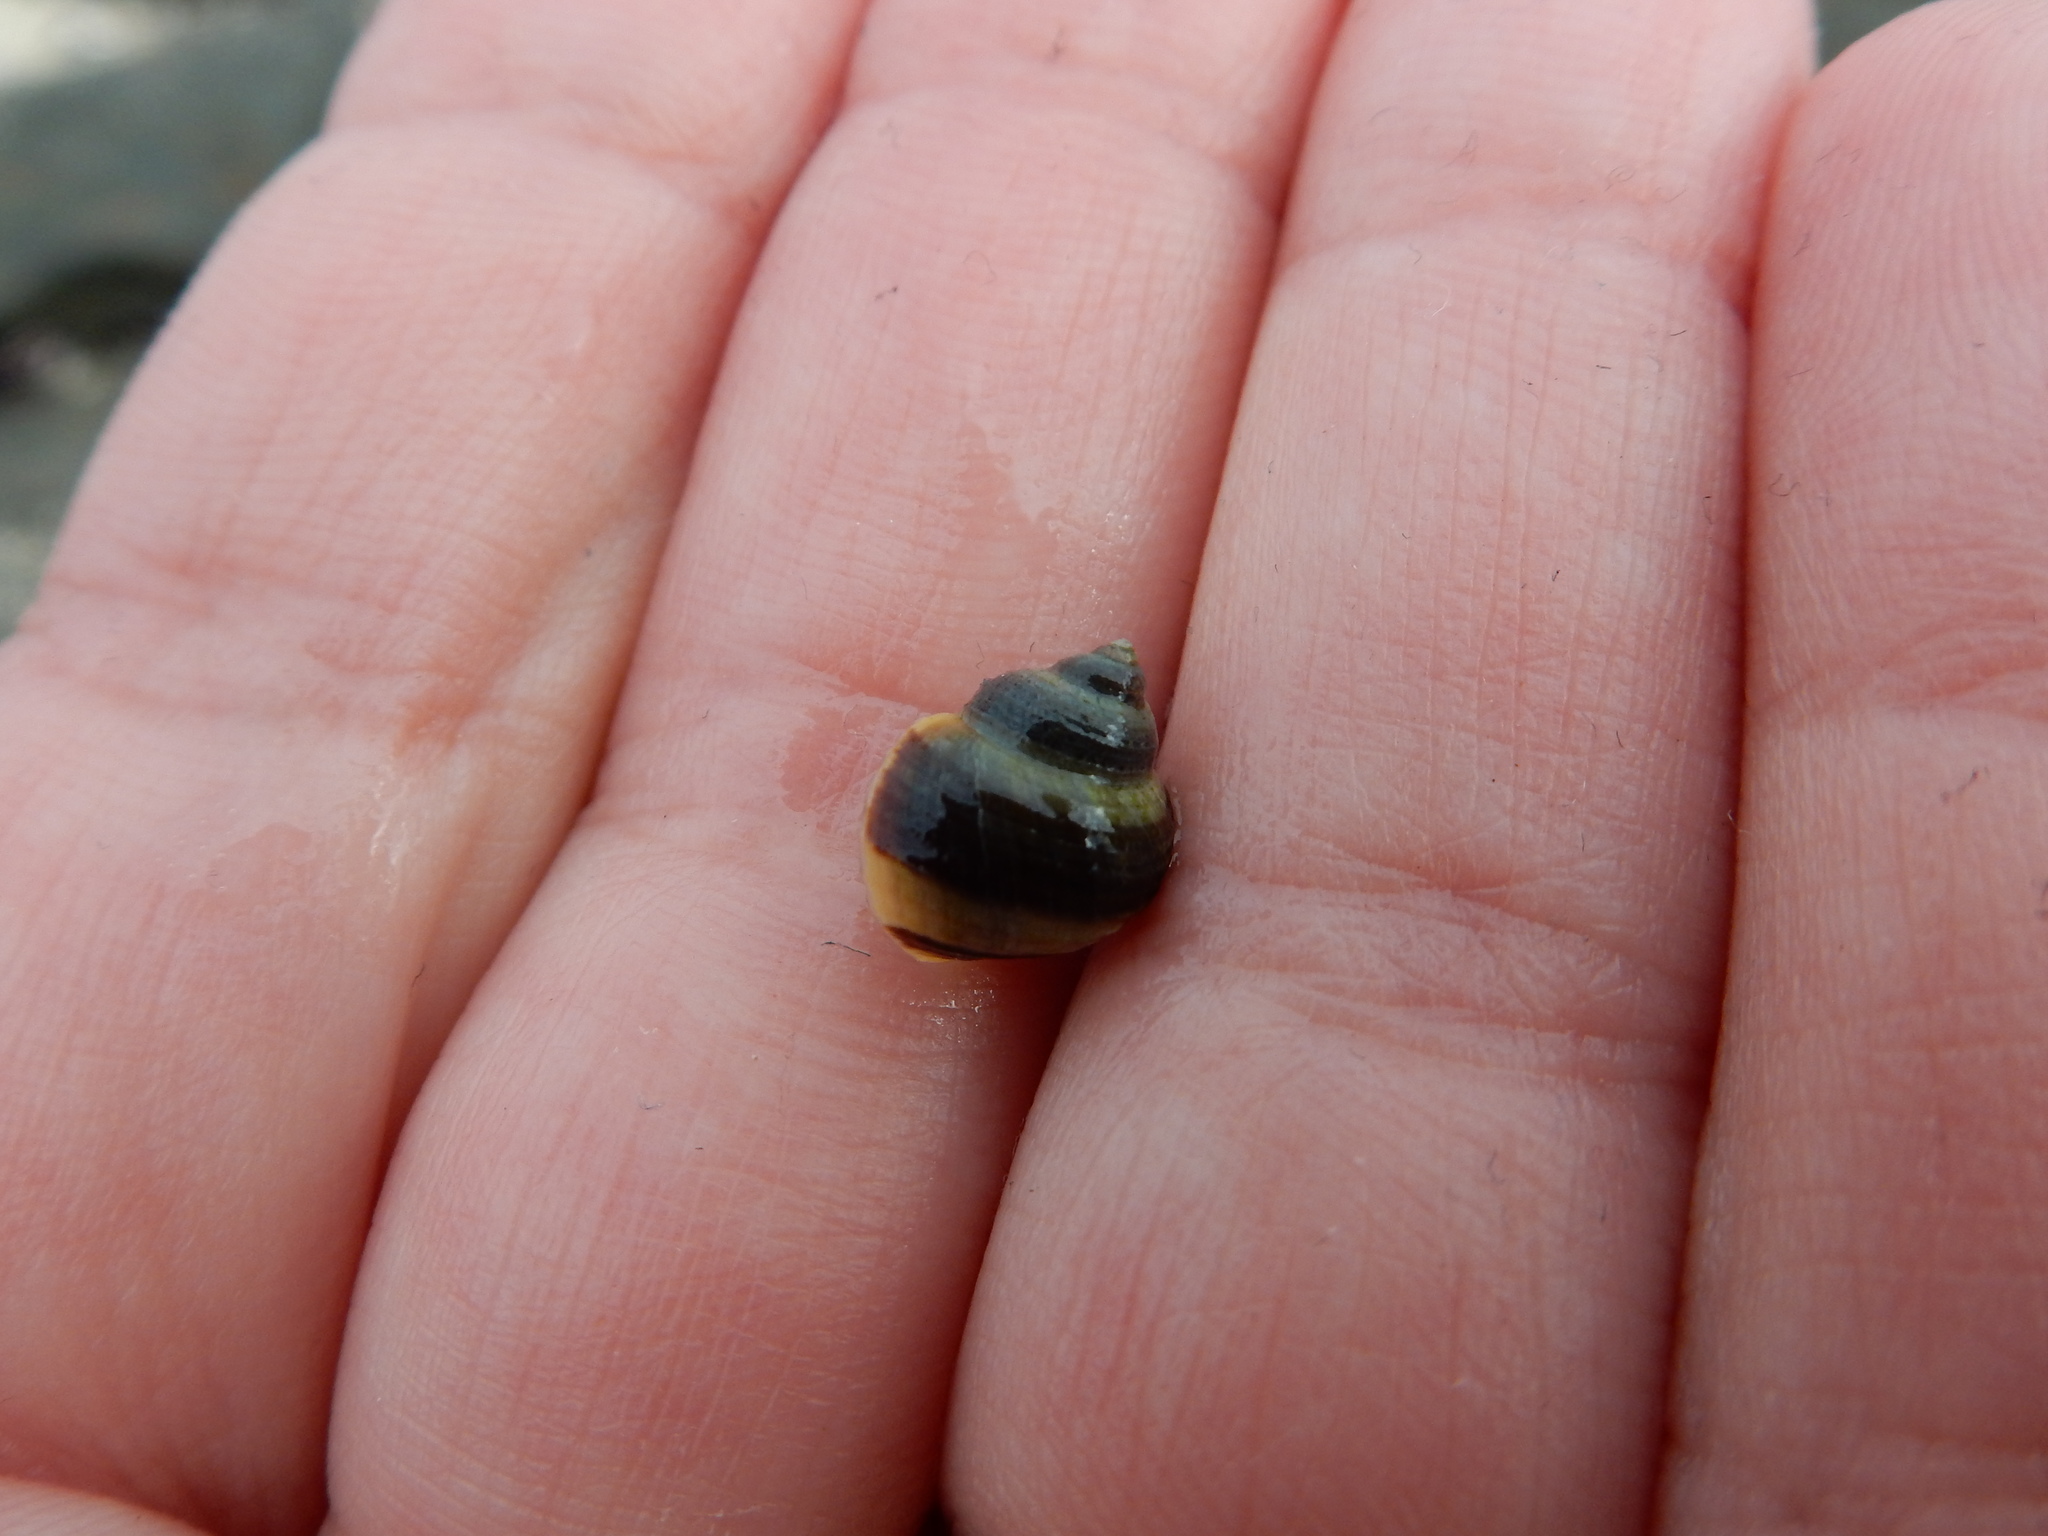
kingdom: Animalia
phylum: Mollusca
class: Gastropoda
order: Littorinimorpha
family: Littorinidae
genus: Littorina
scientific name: Littorina saxatilis
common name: Black-lined periwinkle
